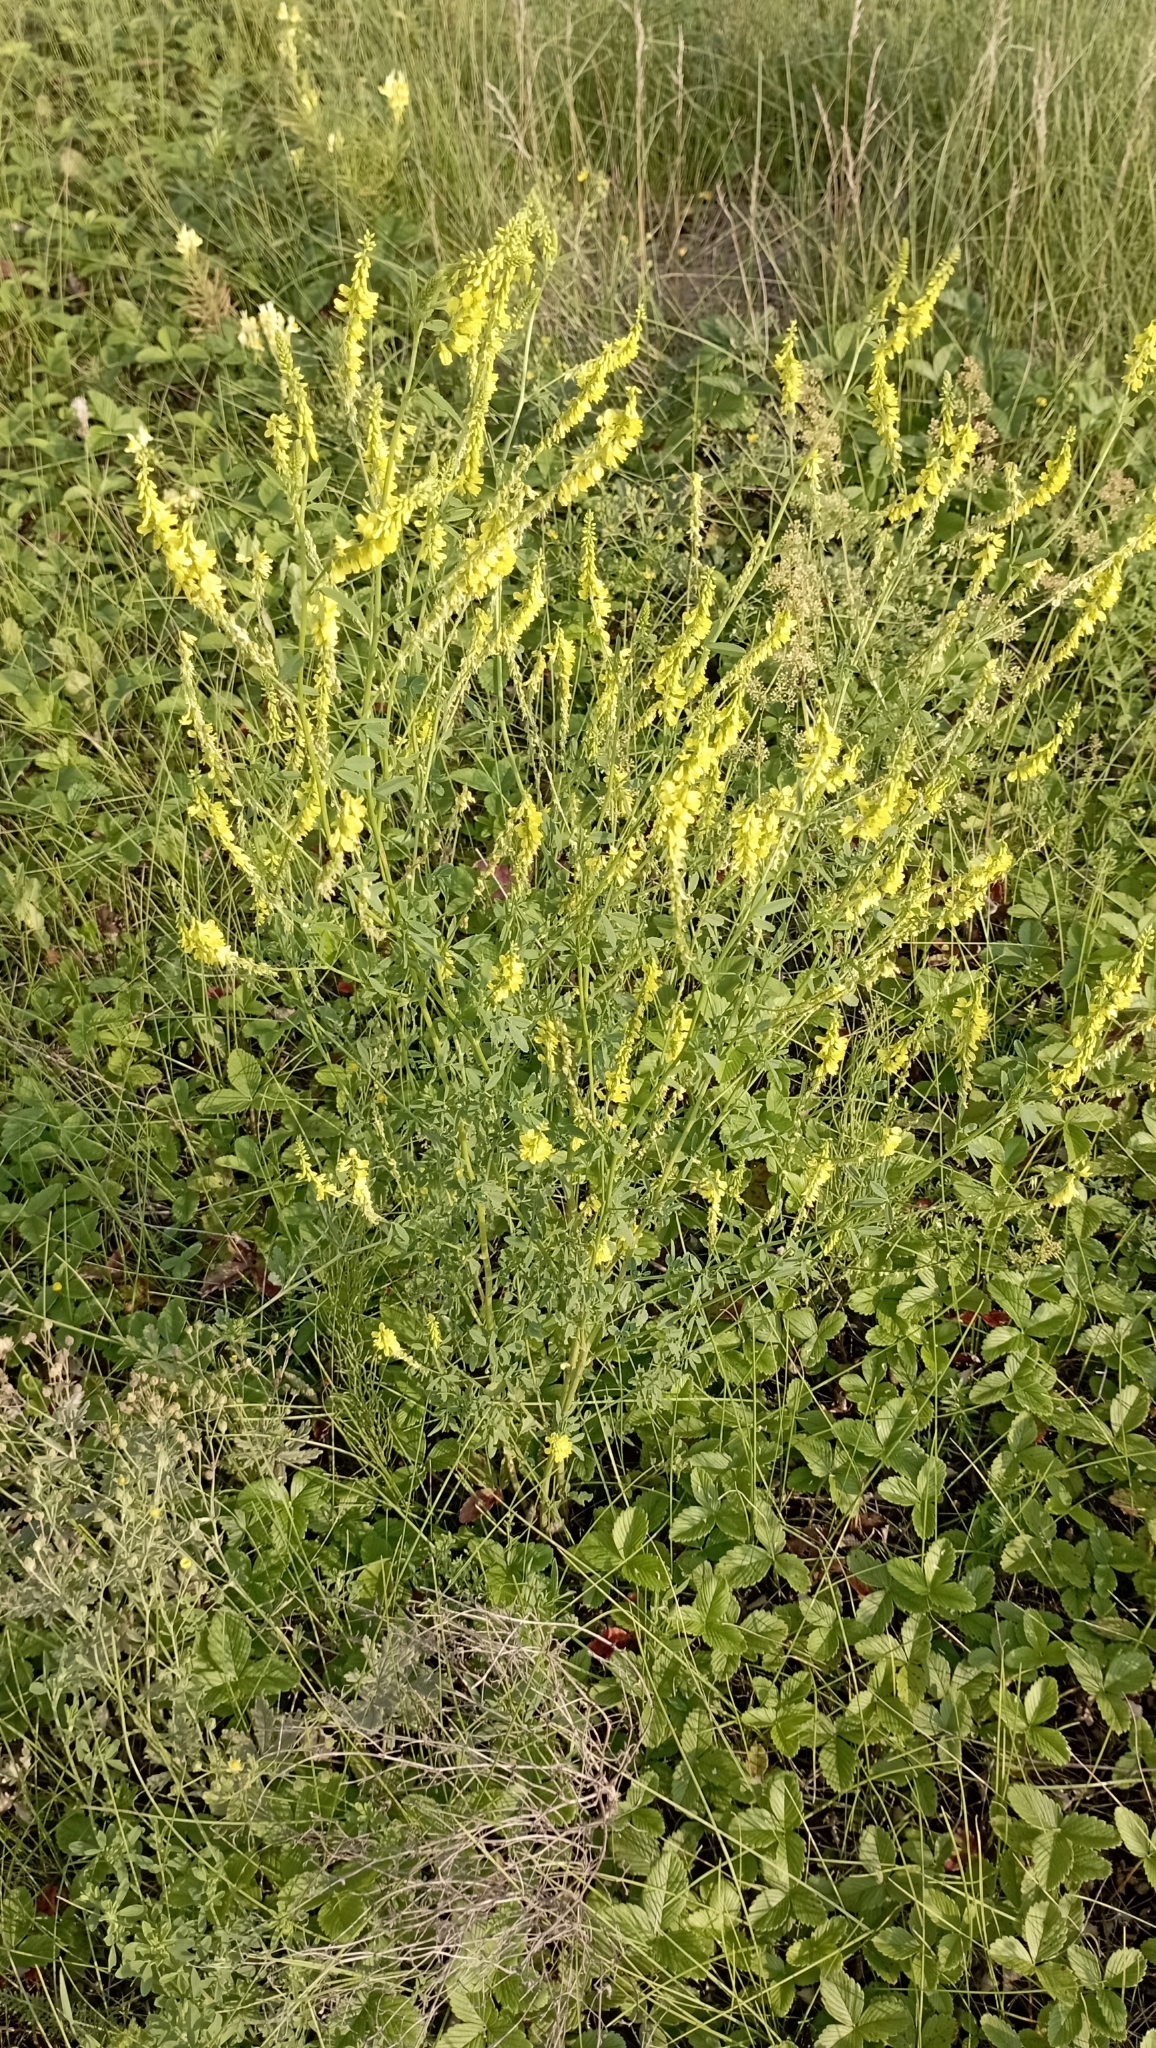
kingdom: Plantae
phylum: Tracheophyta
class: Magnoliopsida
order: Fabales
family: Fabaceae
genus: Melilotus
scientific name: Melilotus officinalis
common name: Sweetclover
